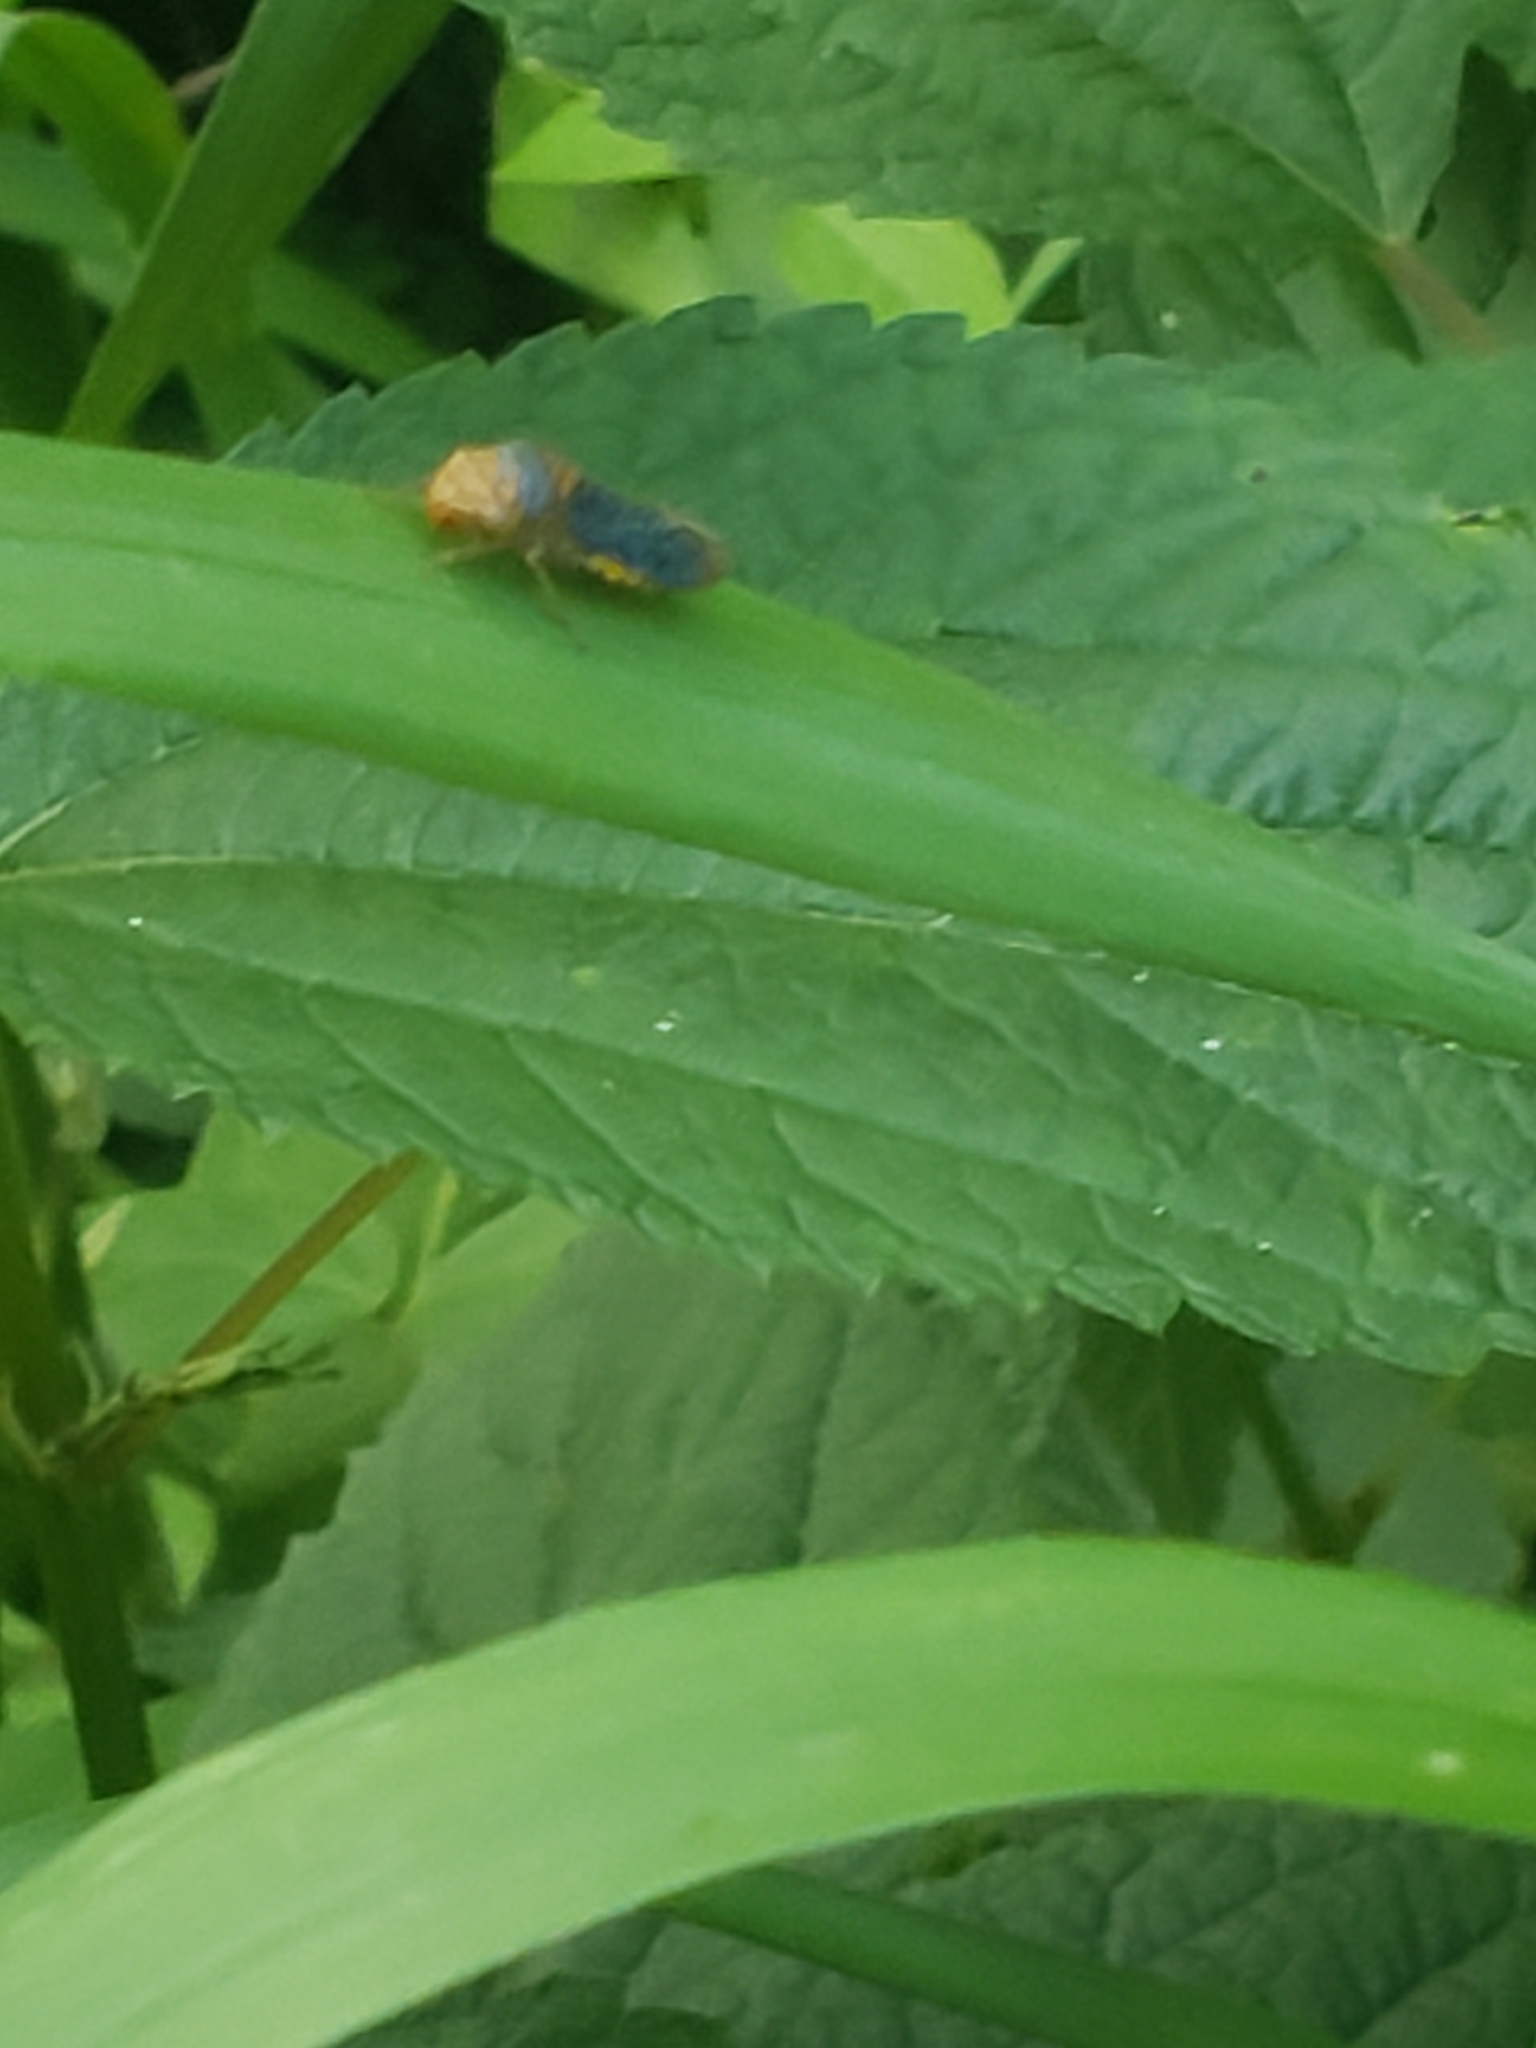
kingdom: Animalia
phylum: Arthropoda
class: Insecta
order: Hemiptera
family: Cicadellidae
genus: Oncometopia
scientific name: Oncometopia orbona
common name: Broad-headed sharpshooter
